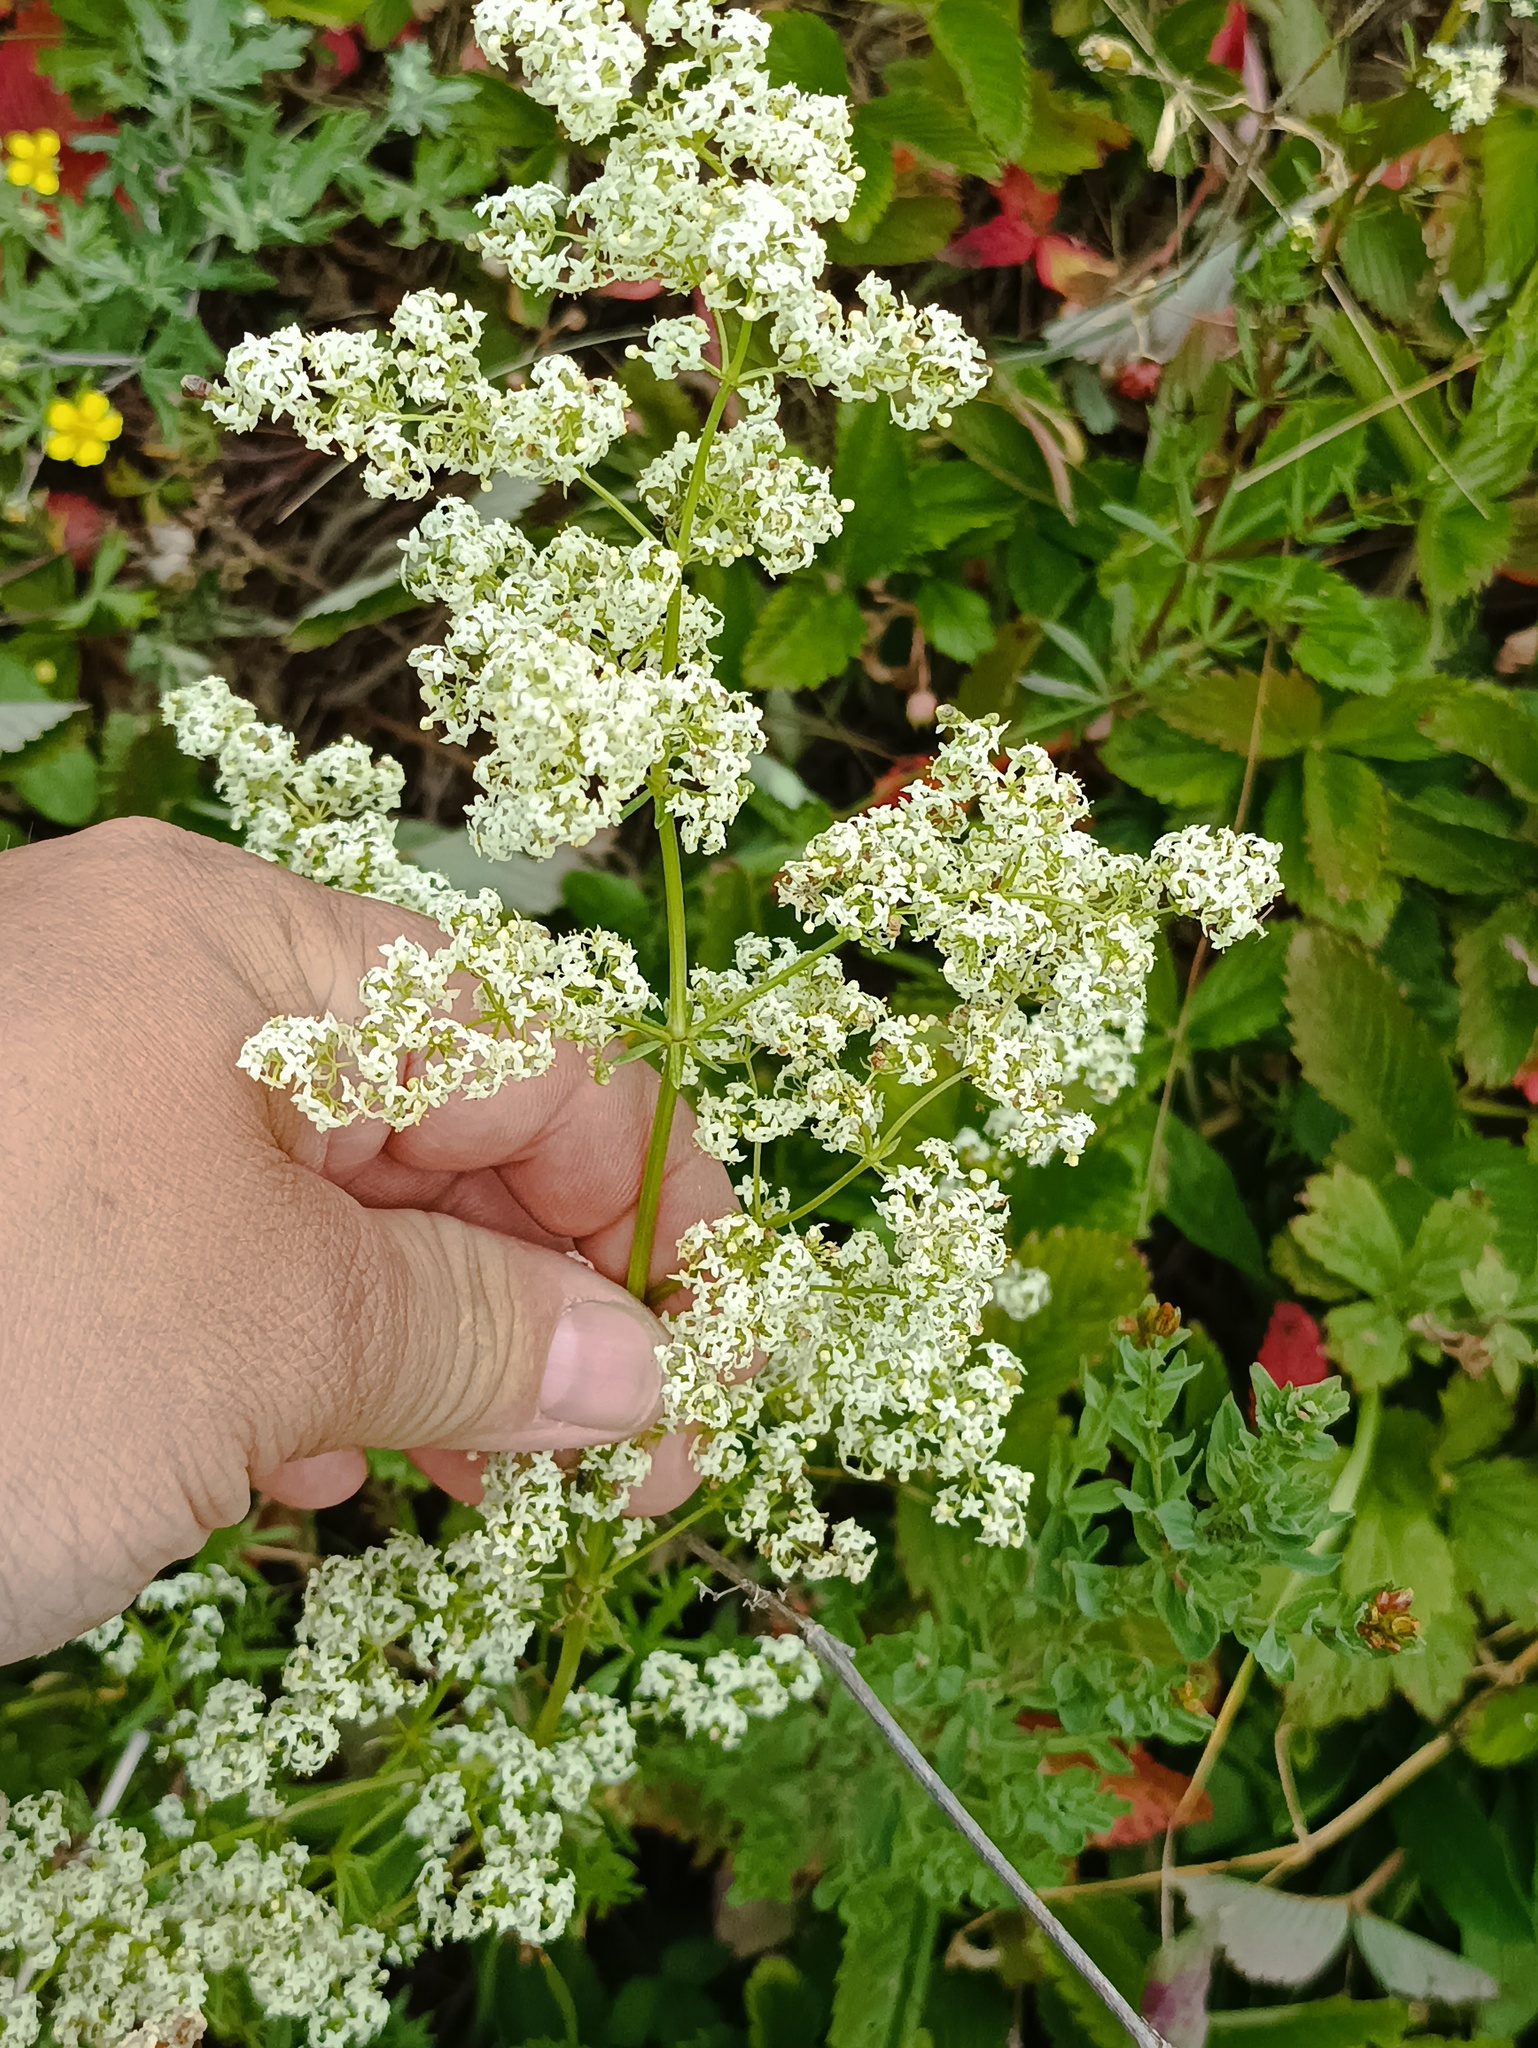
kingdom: Plantae
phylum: Tracheophyta
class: Magnoliopsida
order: Gentianales
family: Rubiaceae
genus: Galium
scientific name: Galium mollugo
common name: Hedge bedstraw
